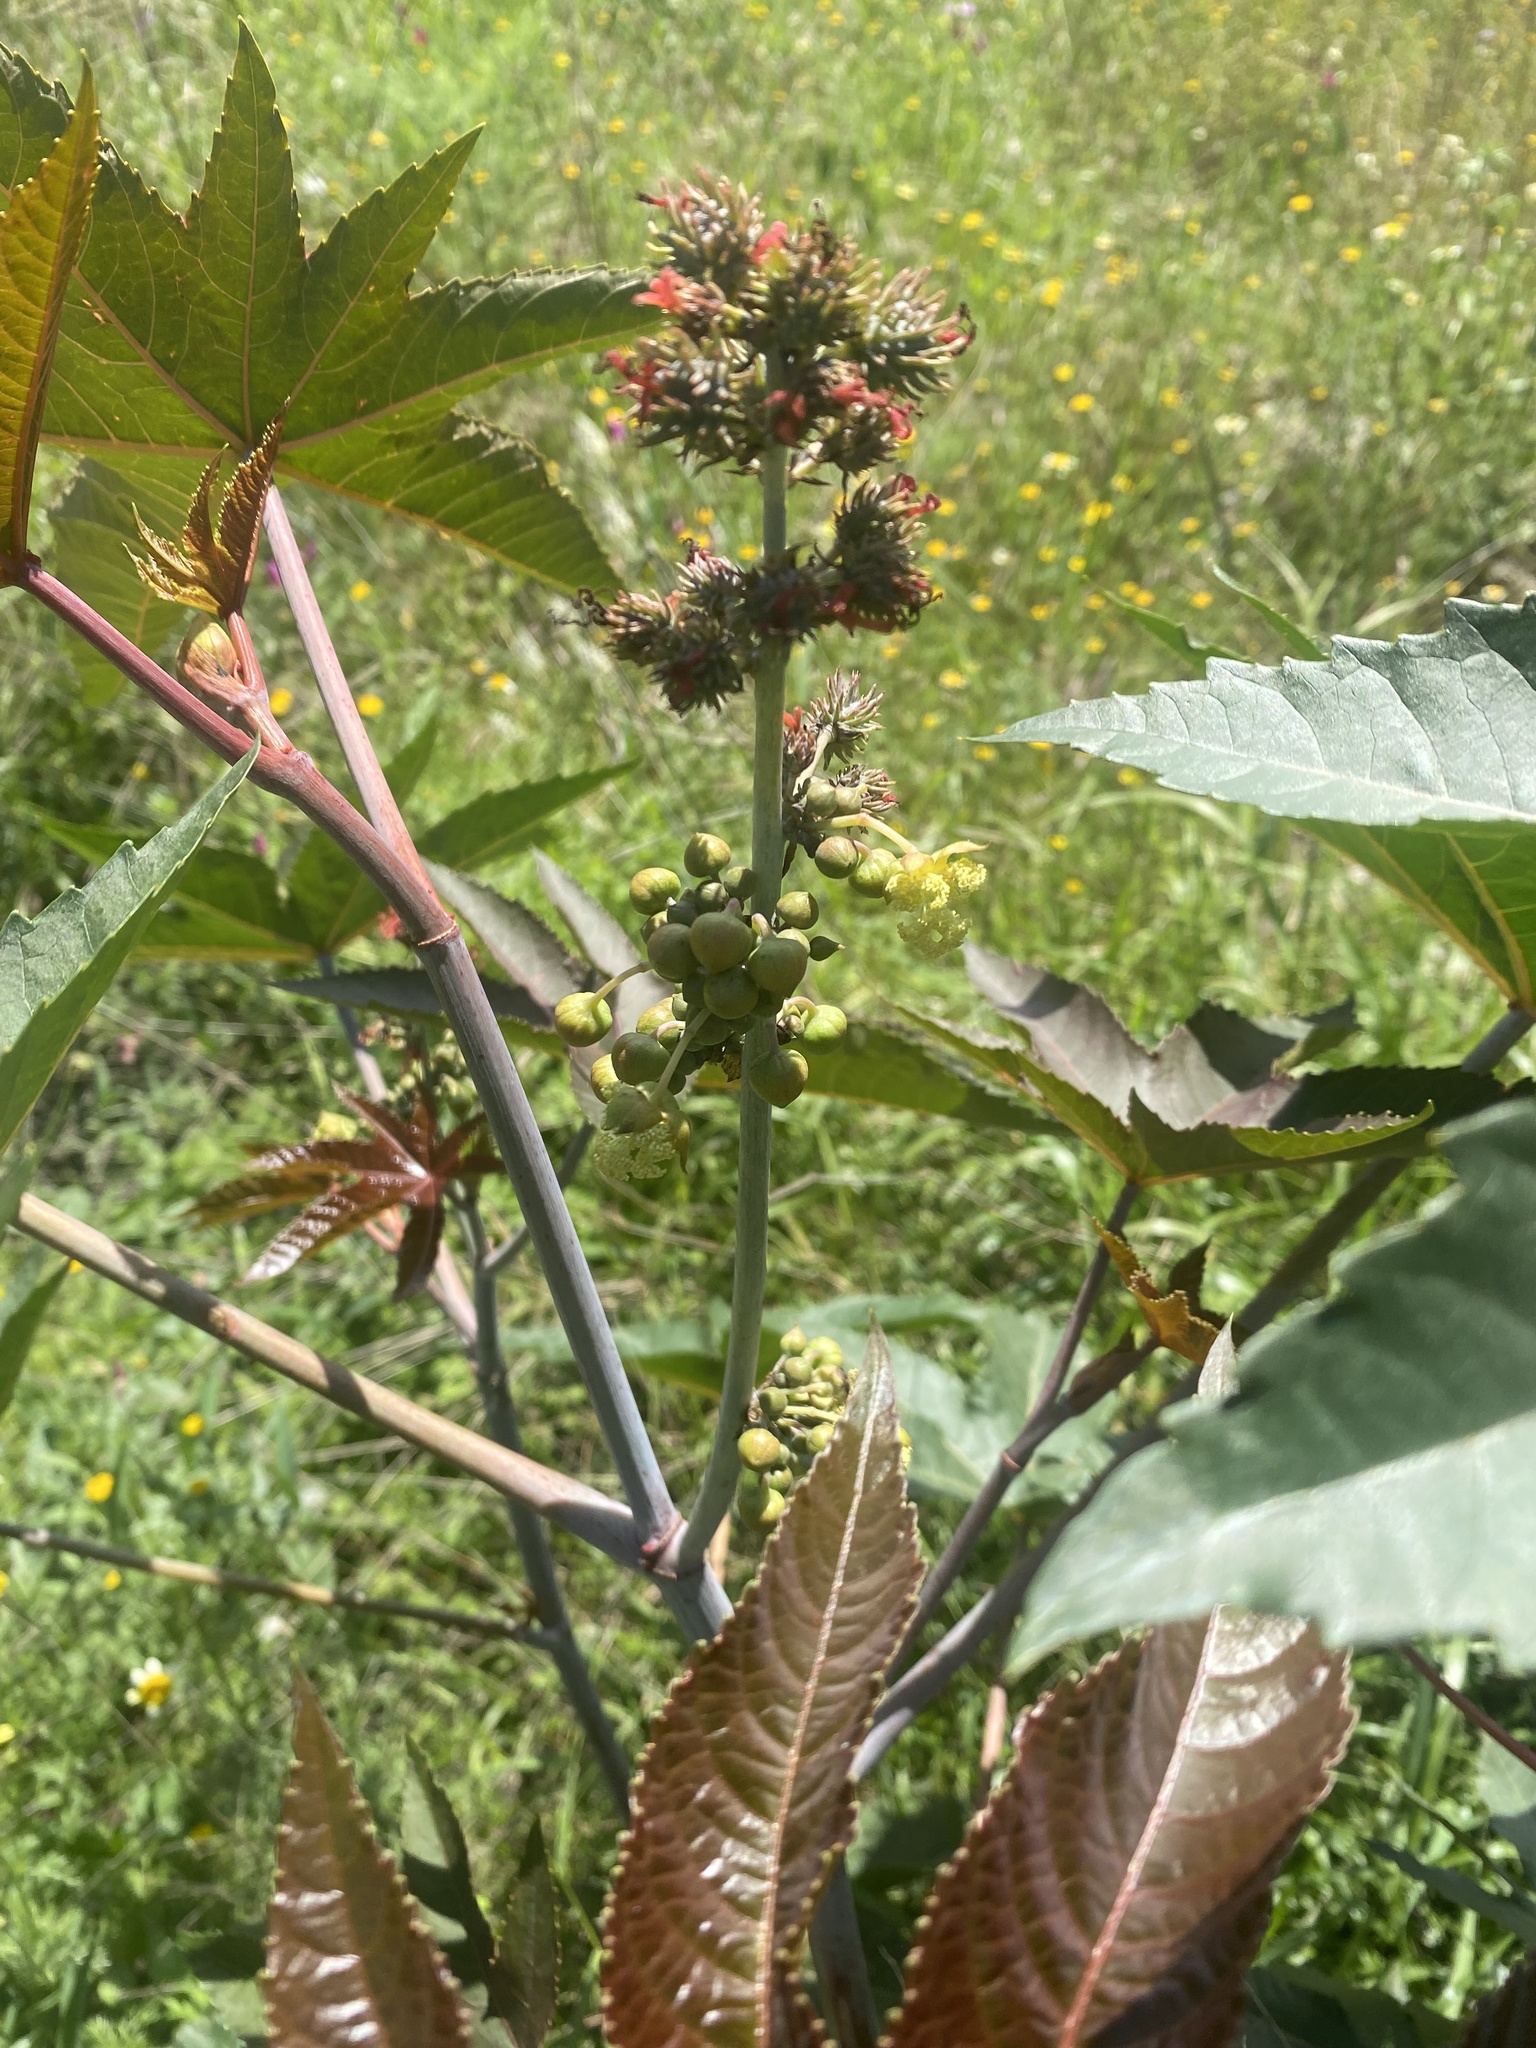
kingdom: Plantae
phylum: Tracheophyta
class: Magnoliopsida
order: Malpighiales
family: Euphorbiaceae
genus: Ricinus
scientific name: Ricinus communis
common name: Castor-oil-plant
